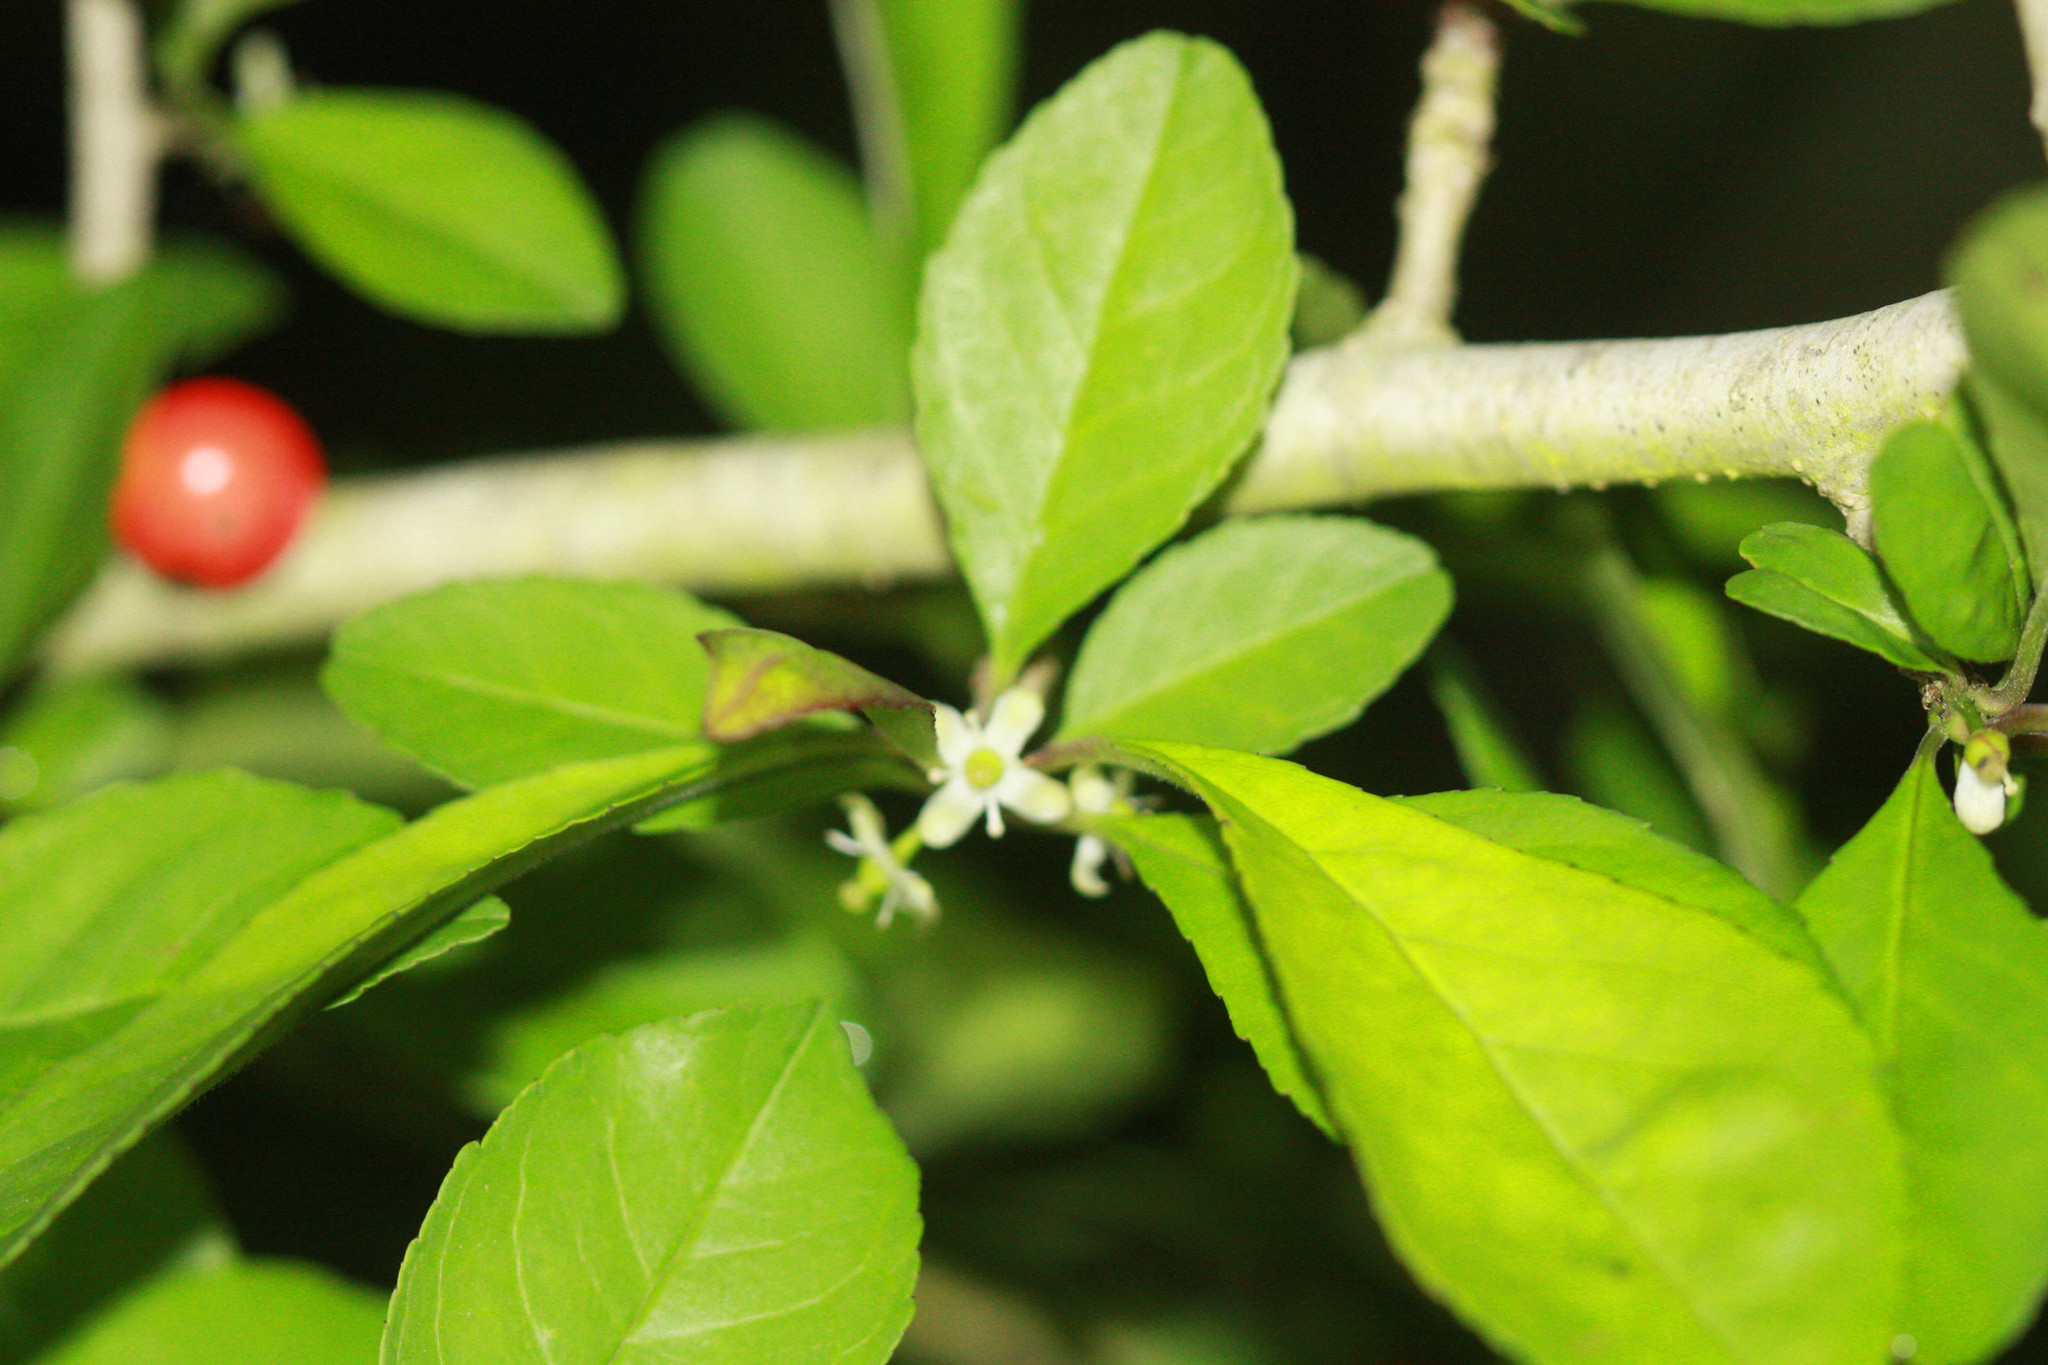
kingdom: Plantae
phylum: Tracheophyta
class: Magnoliopsida
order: Aquifoliales
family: Aquifoliaceae
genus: Ilex
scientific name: Ilex decidua
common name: Possum-haw
